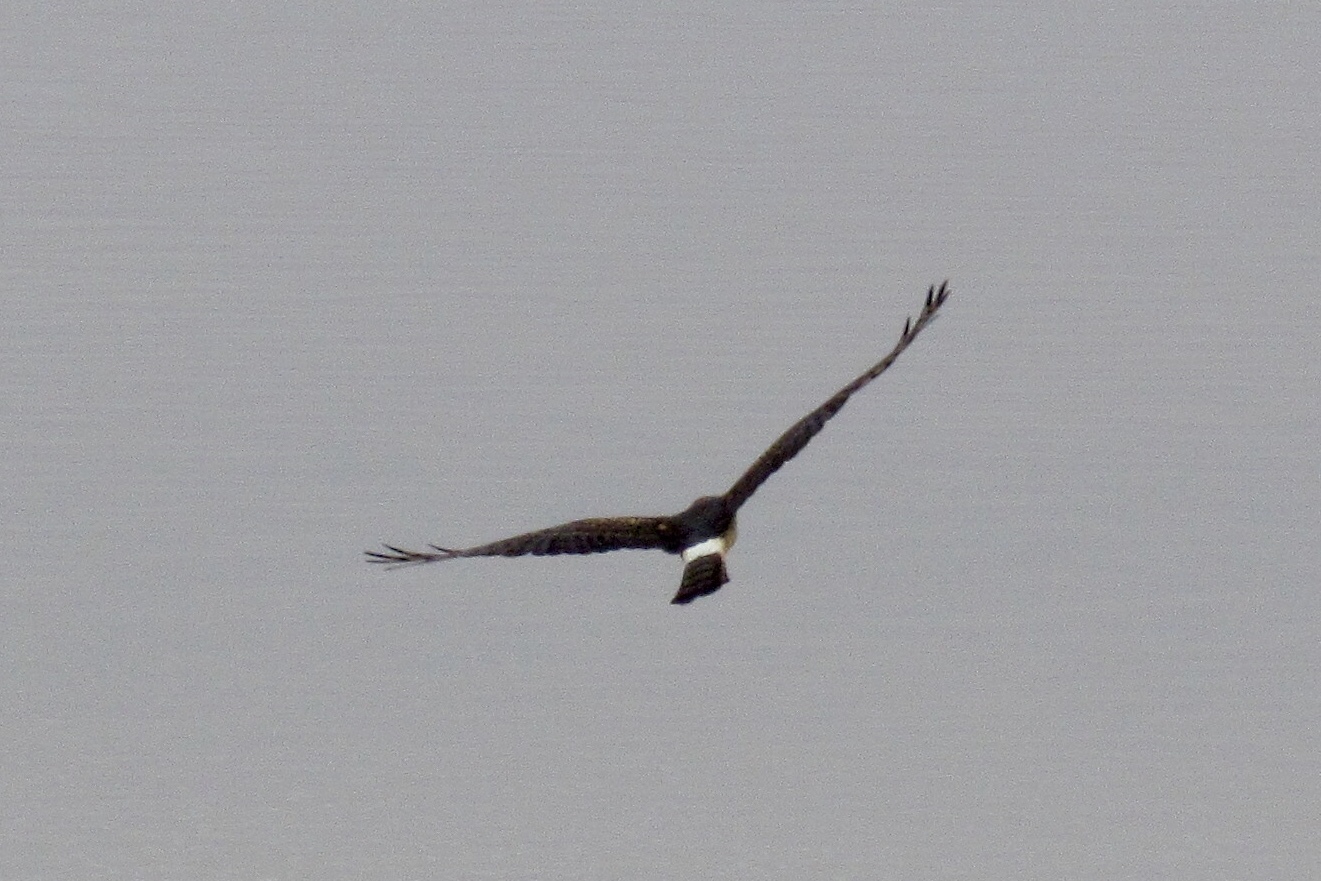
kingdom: Animalia
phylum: Chordata
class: Aves
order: Accipitriformes
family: Accipitridae
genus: Circus
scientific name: Circus cyaneus
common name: Hen harrier
